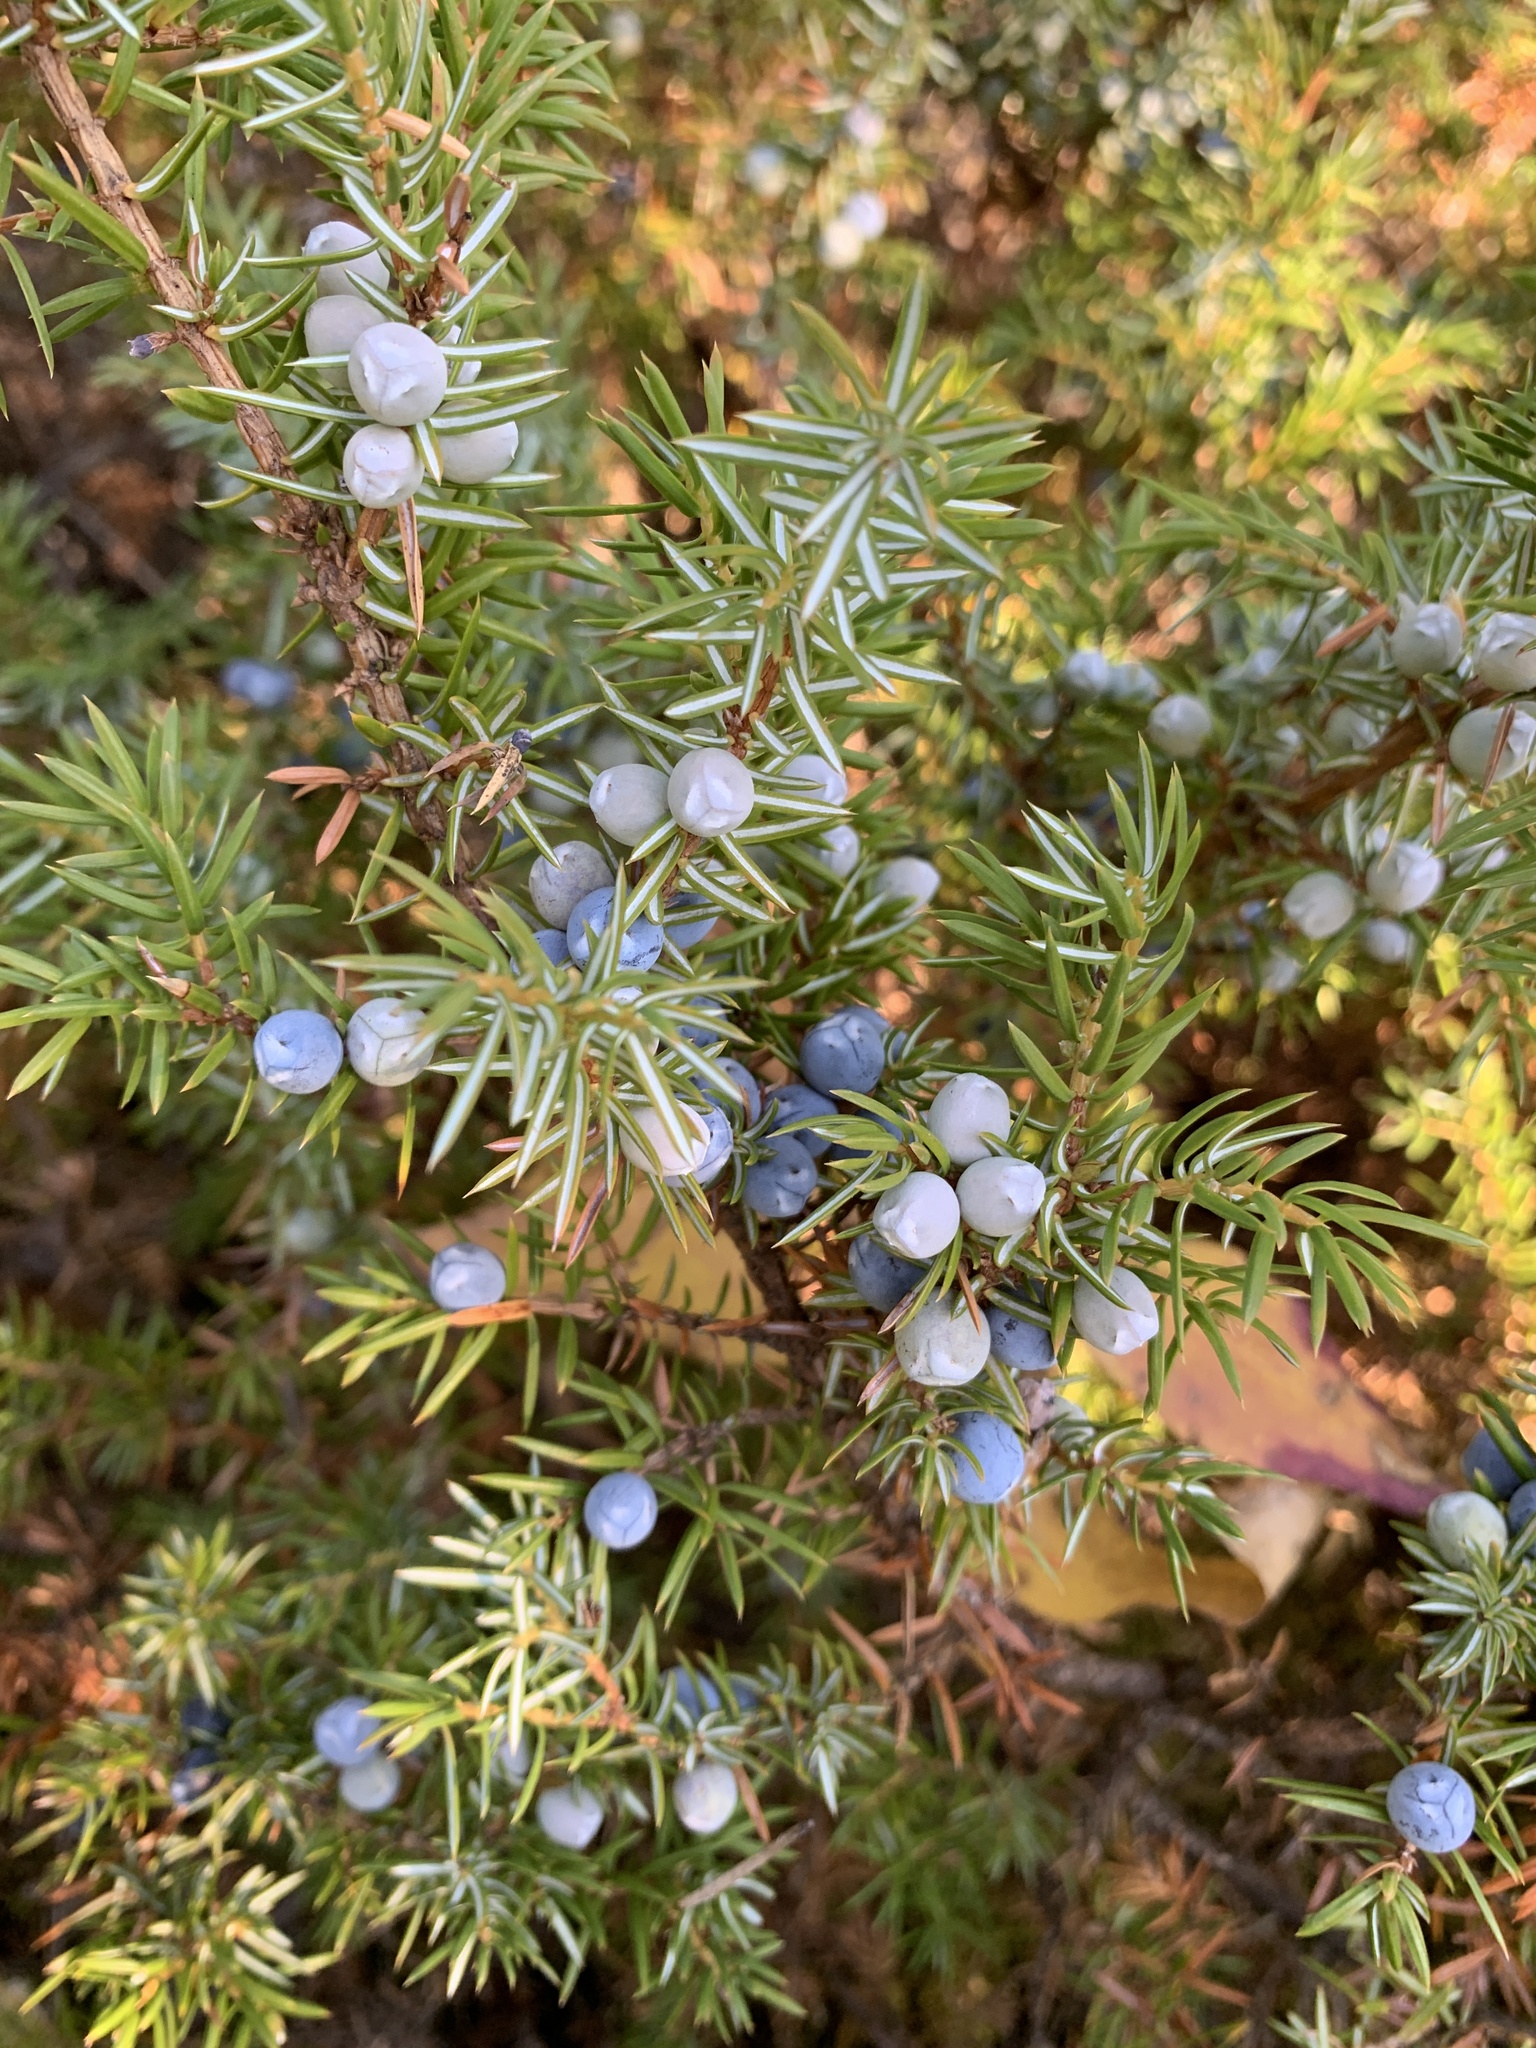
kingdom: Plantae
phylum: Tracheophyta
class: Pinopsida
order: Pinales
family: Cupressaceae
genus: Juniperus
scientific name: Juniperus communis
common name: Common juniper
